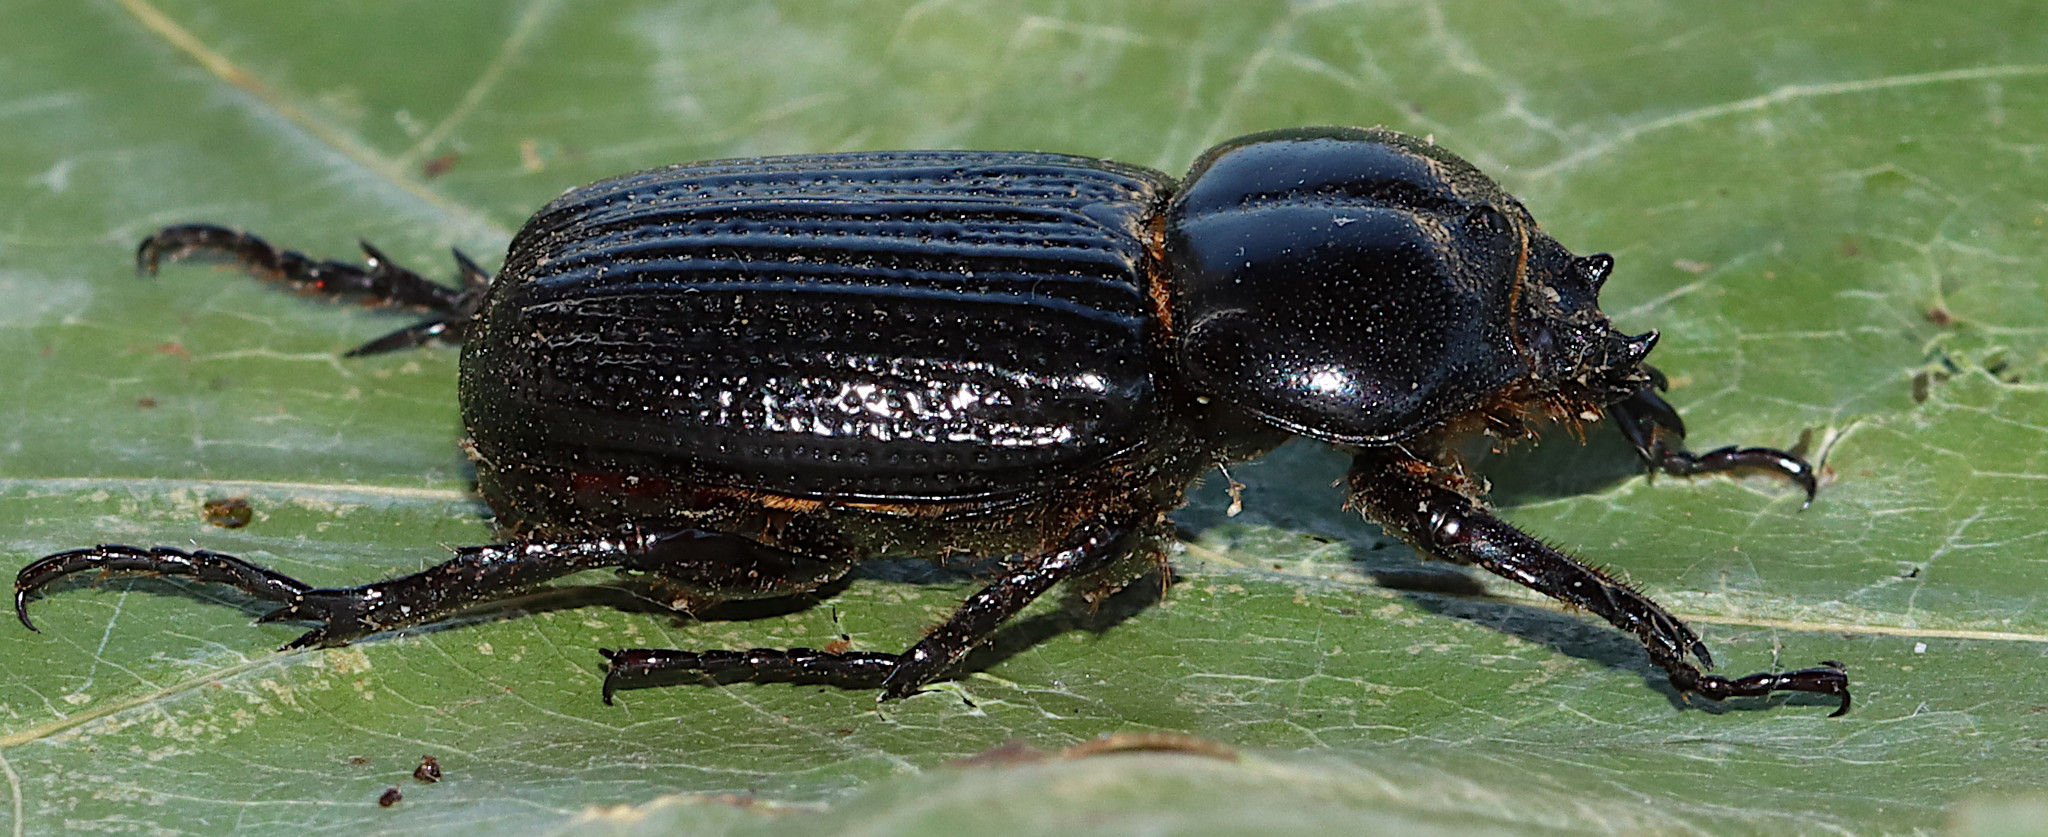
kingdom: Animalia
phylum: Arthropoda
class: Insecta
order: Coleoptera
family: Scarabaeidae
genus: Phileurus
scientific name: Phileurus valgus
